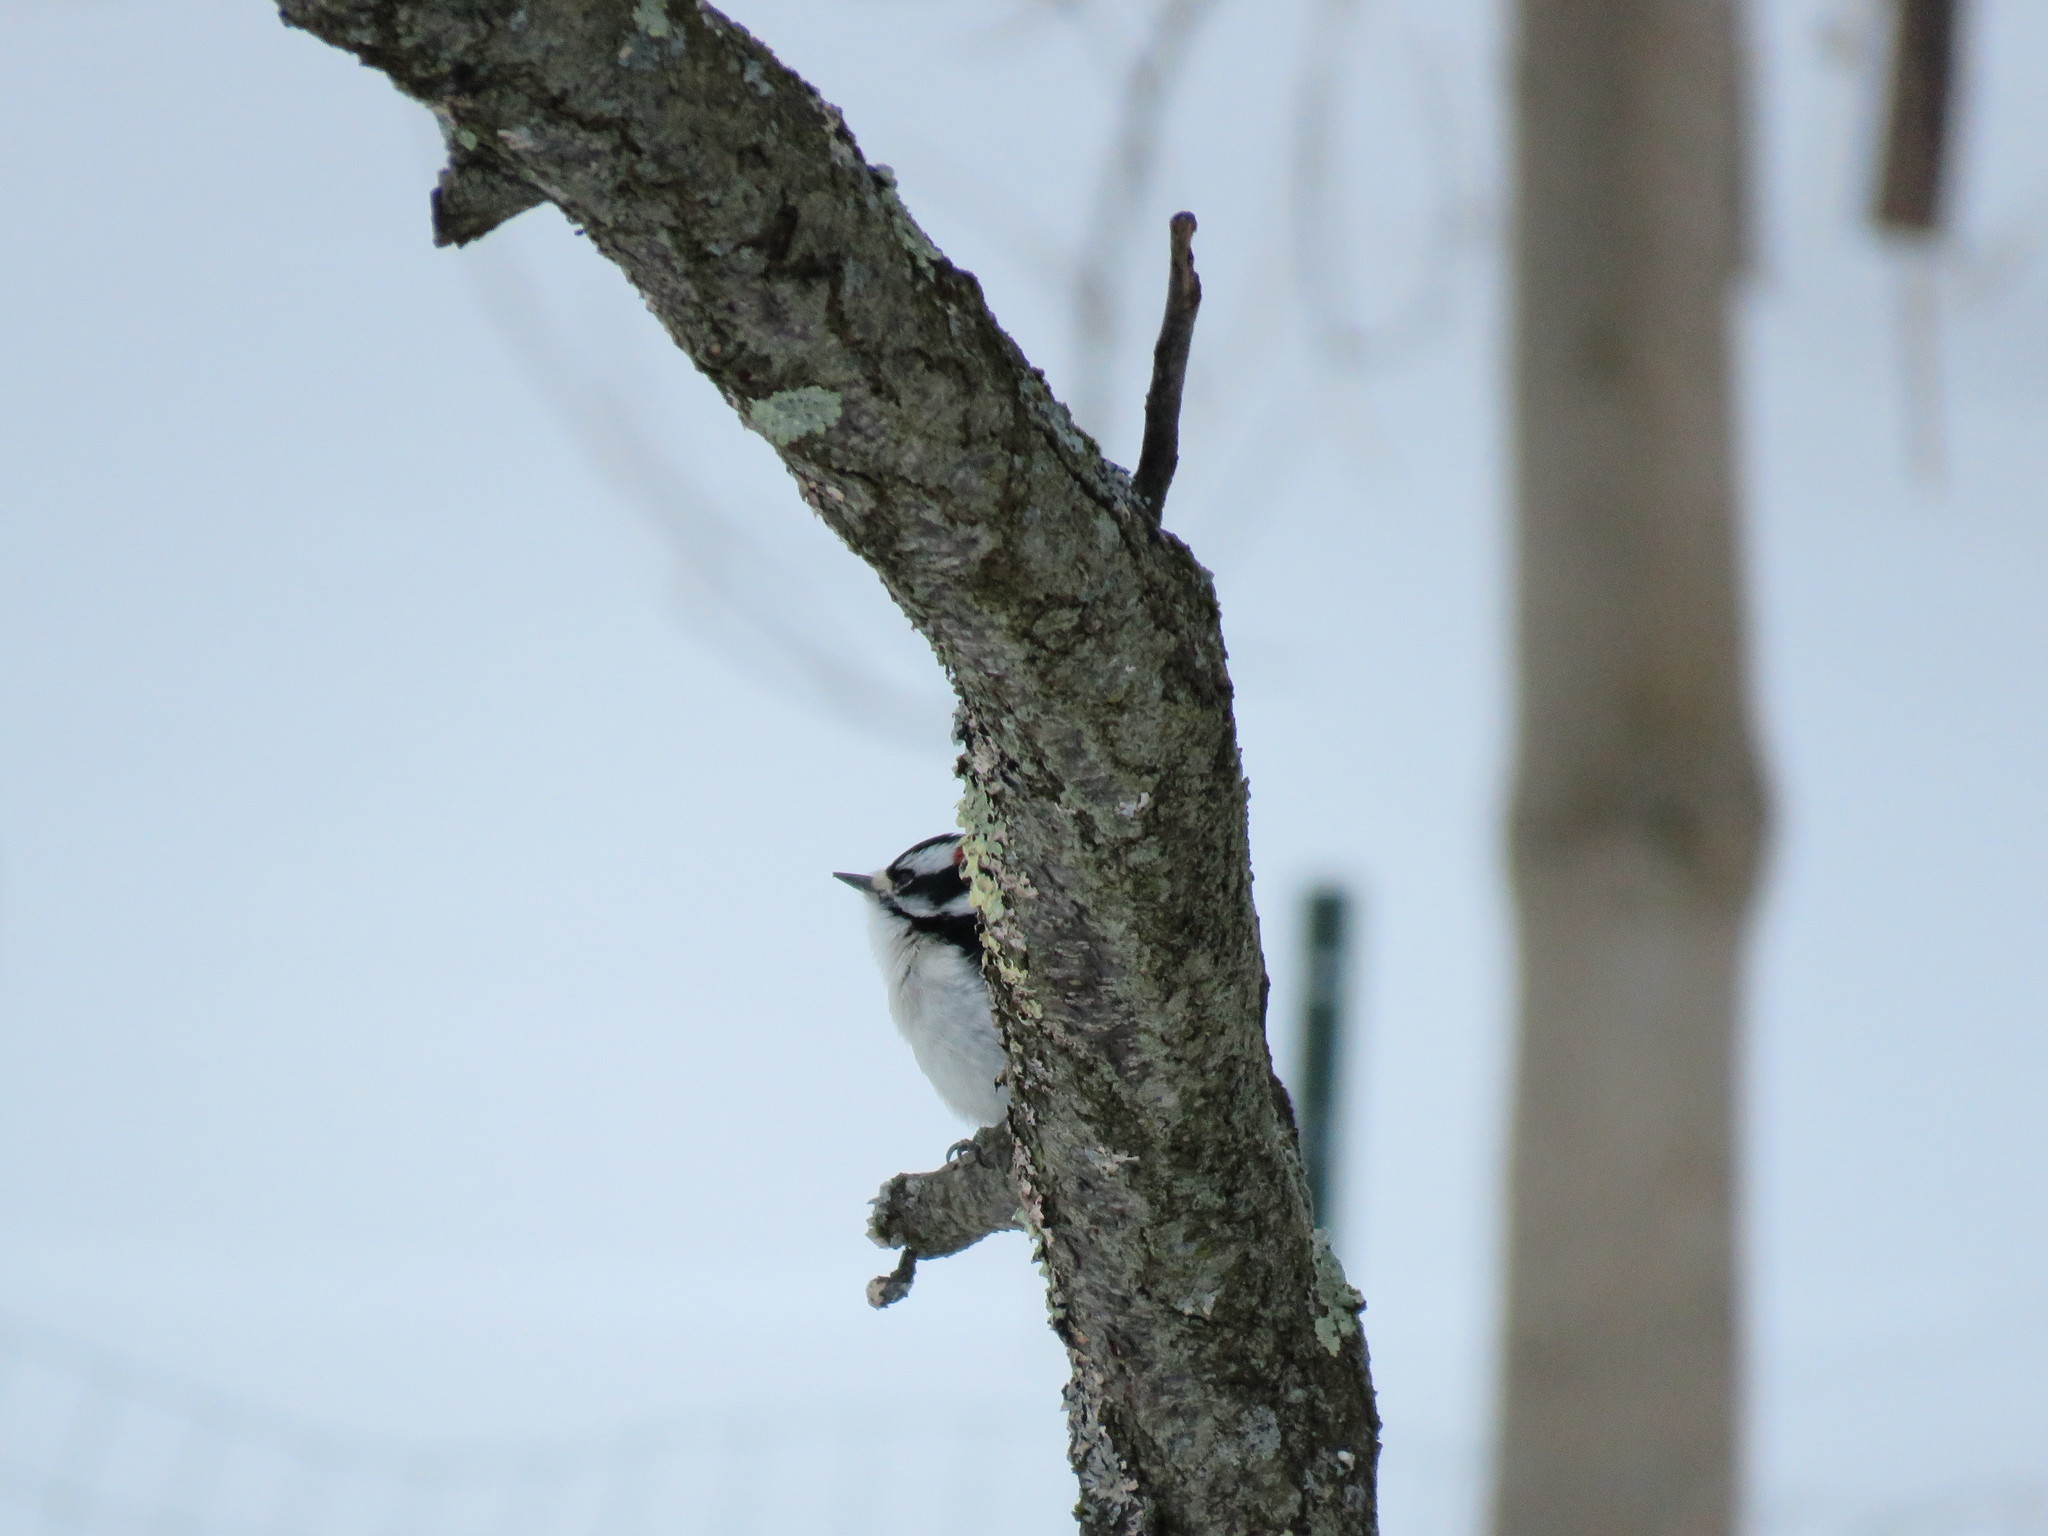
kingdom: Animalia
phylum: Chordata
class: Aves
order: Piciformes
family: Picidae
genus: Dryobates
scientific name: Dryobates pubescens
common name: Downy woodpecker
